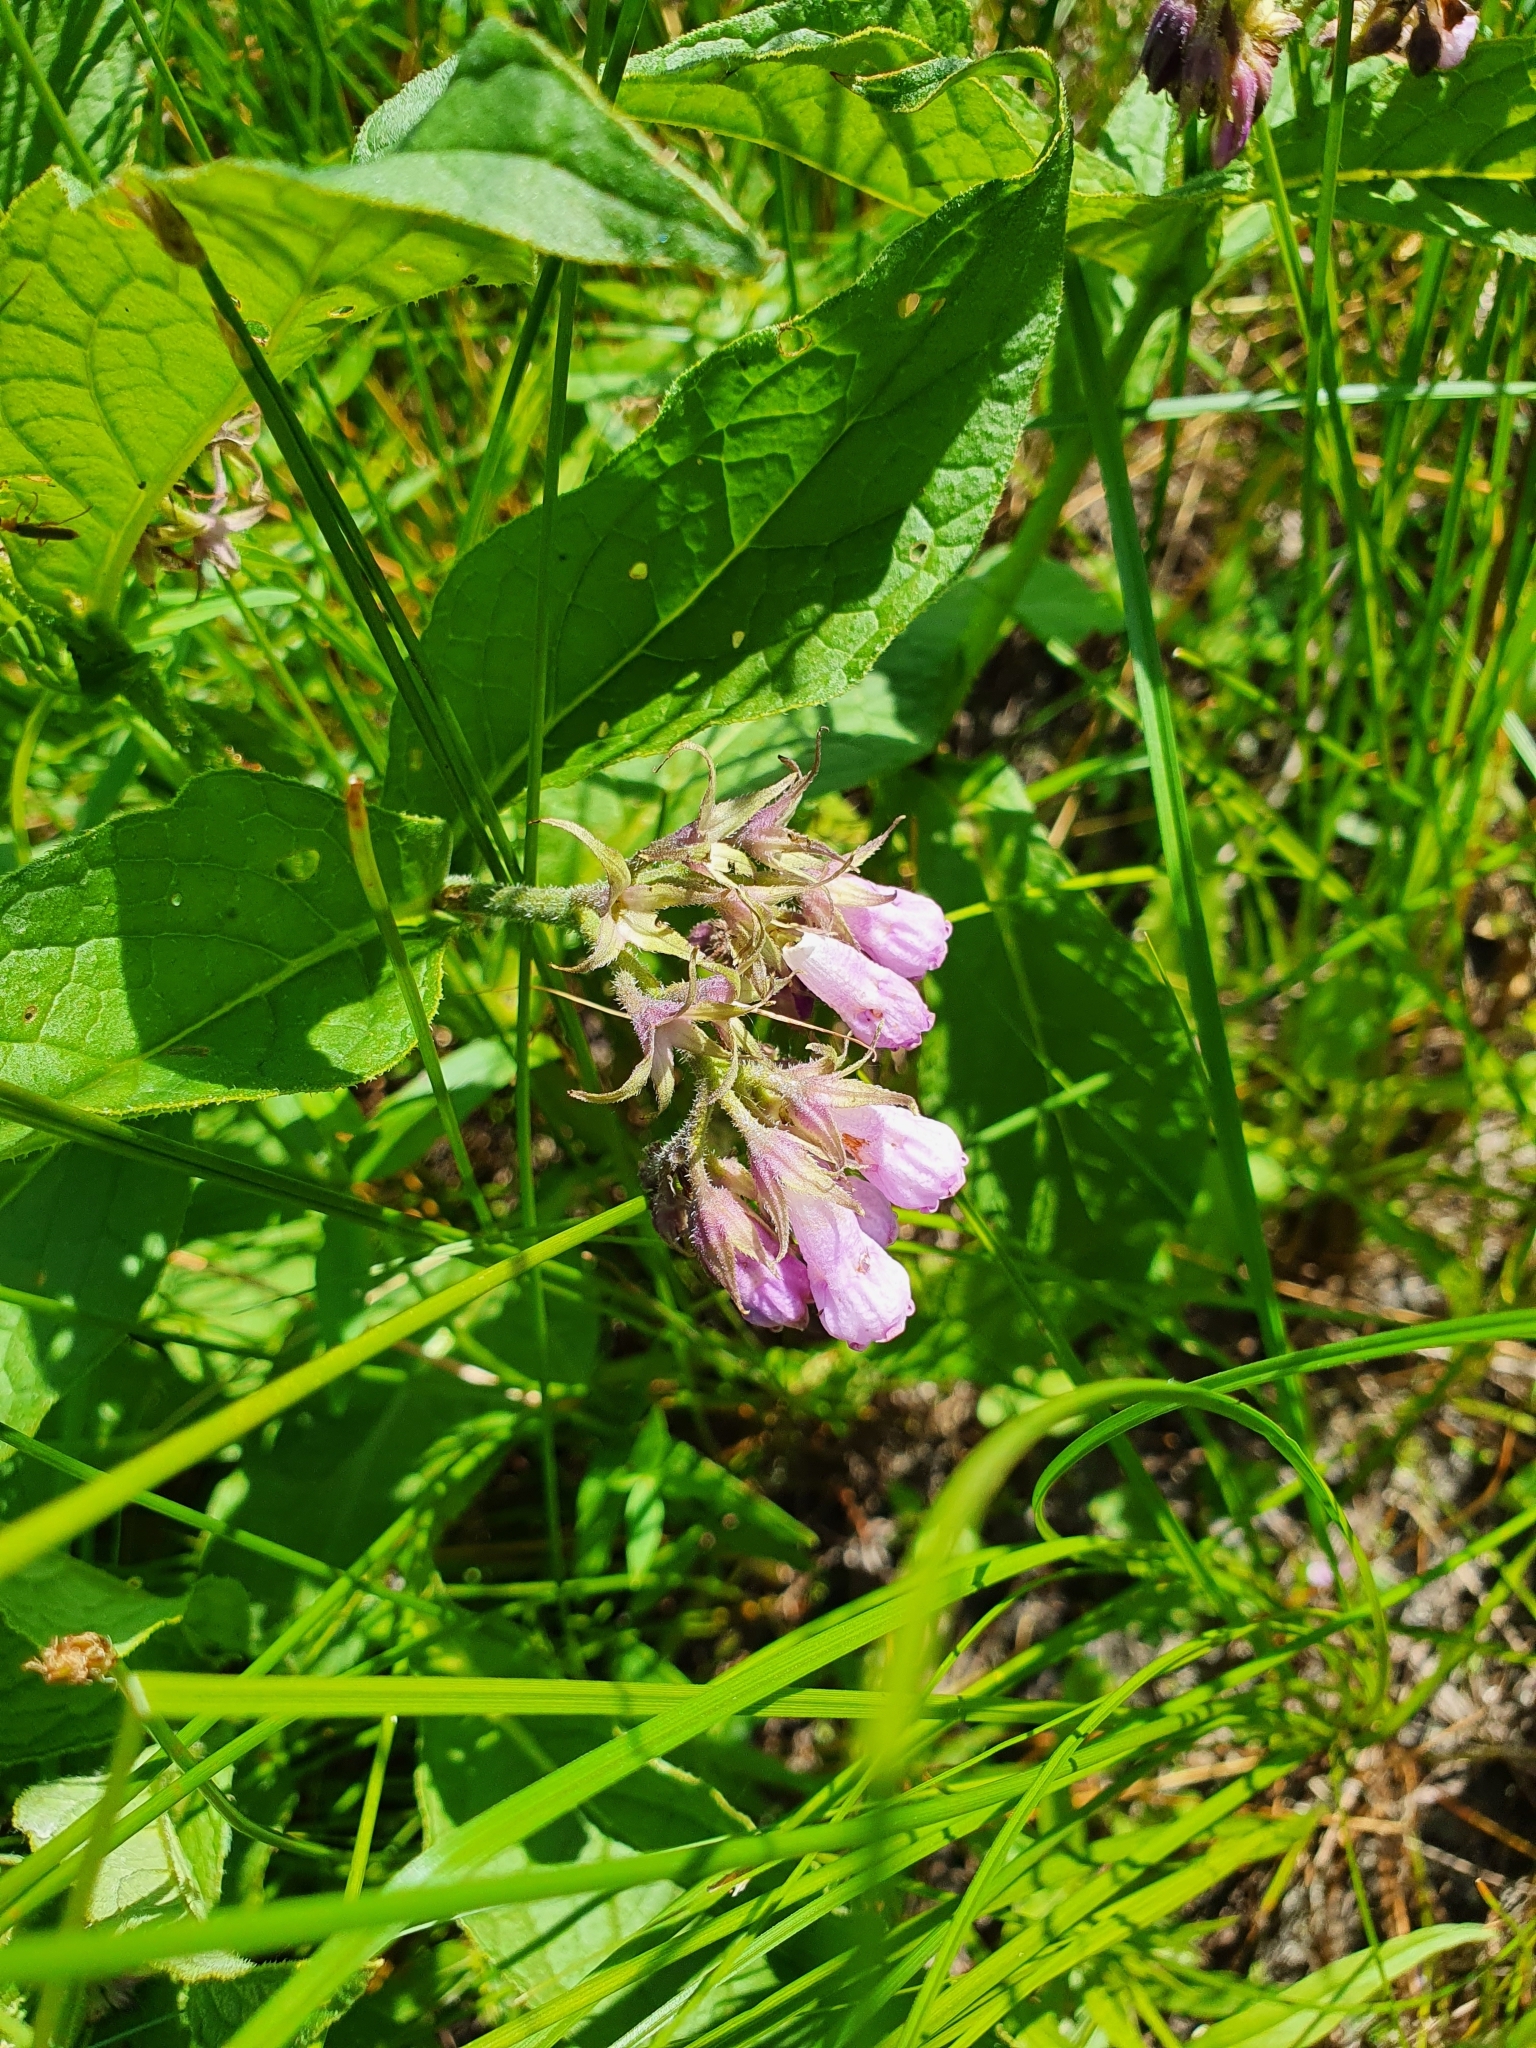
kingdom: Plantae
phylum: Tracheophyta
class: Magnoliopsida
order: Boraginales
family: Boraginaceae
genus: Symphytum
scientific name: Symphytum officinale
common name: Common comfrey
